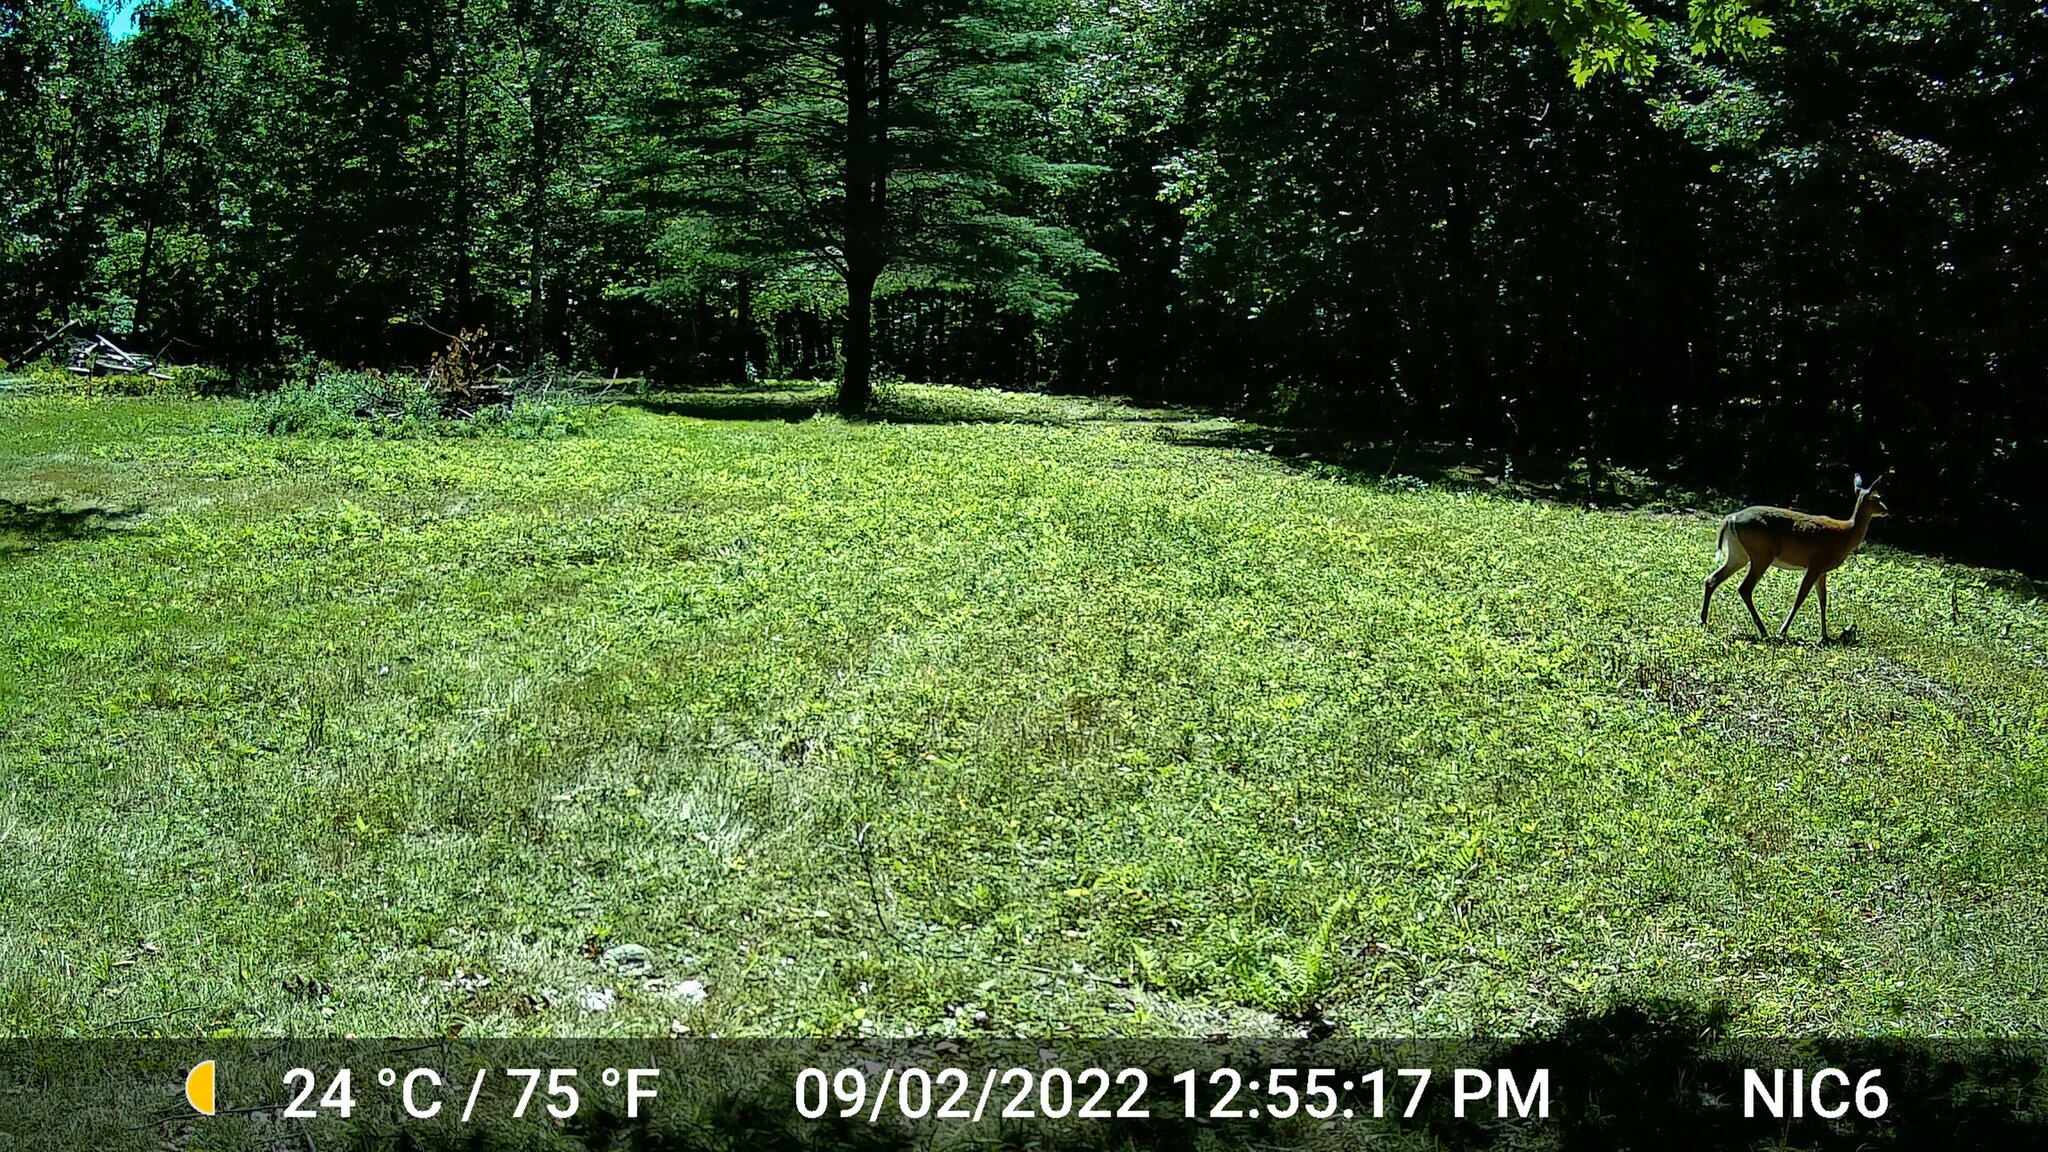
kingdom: Animalia
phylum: Chordata
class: Mammalia
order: Artiodactyla
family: Cervidae
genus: Odocoileus
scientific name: Odocoileus virginianus
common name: White-tailed deer
